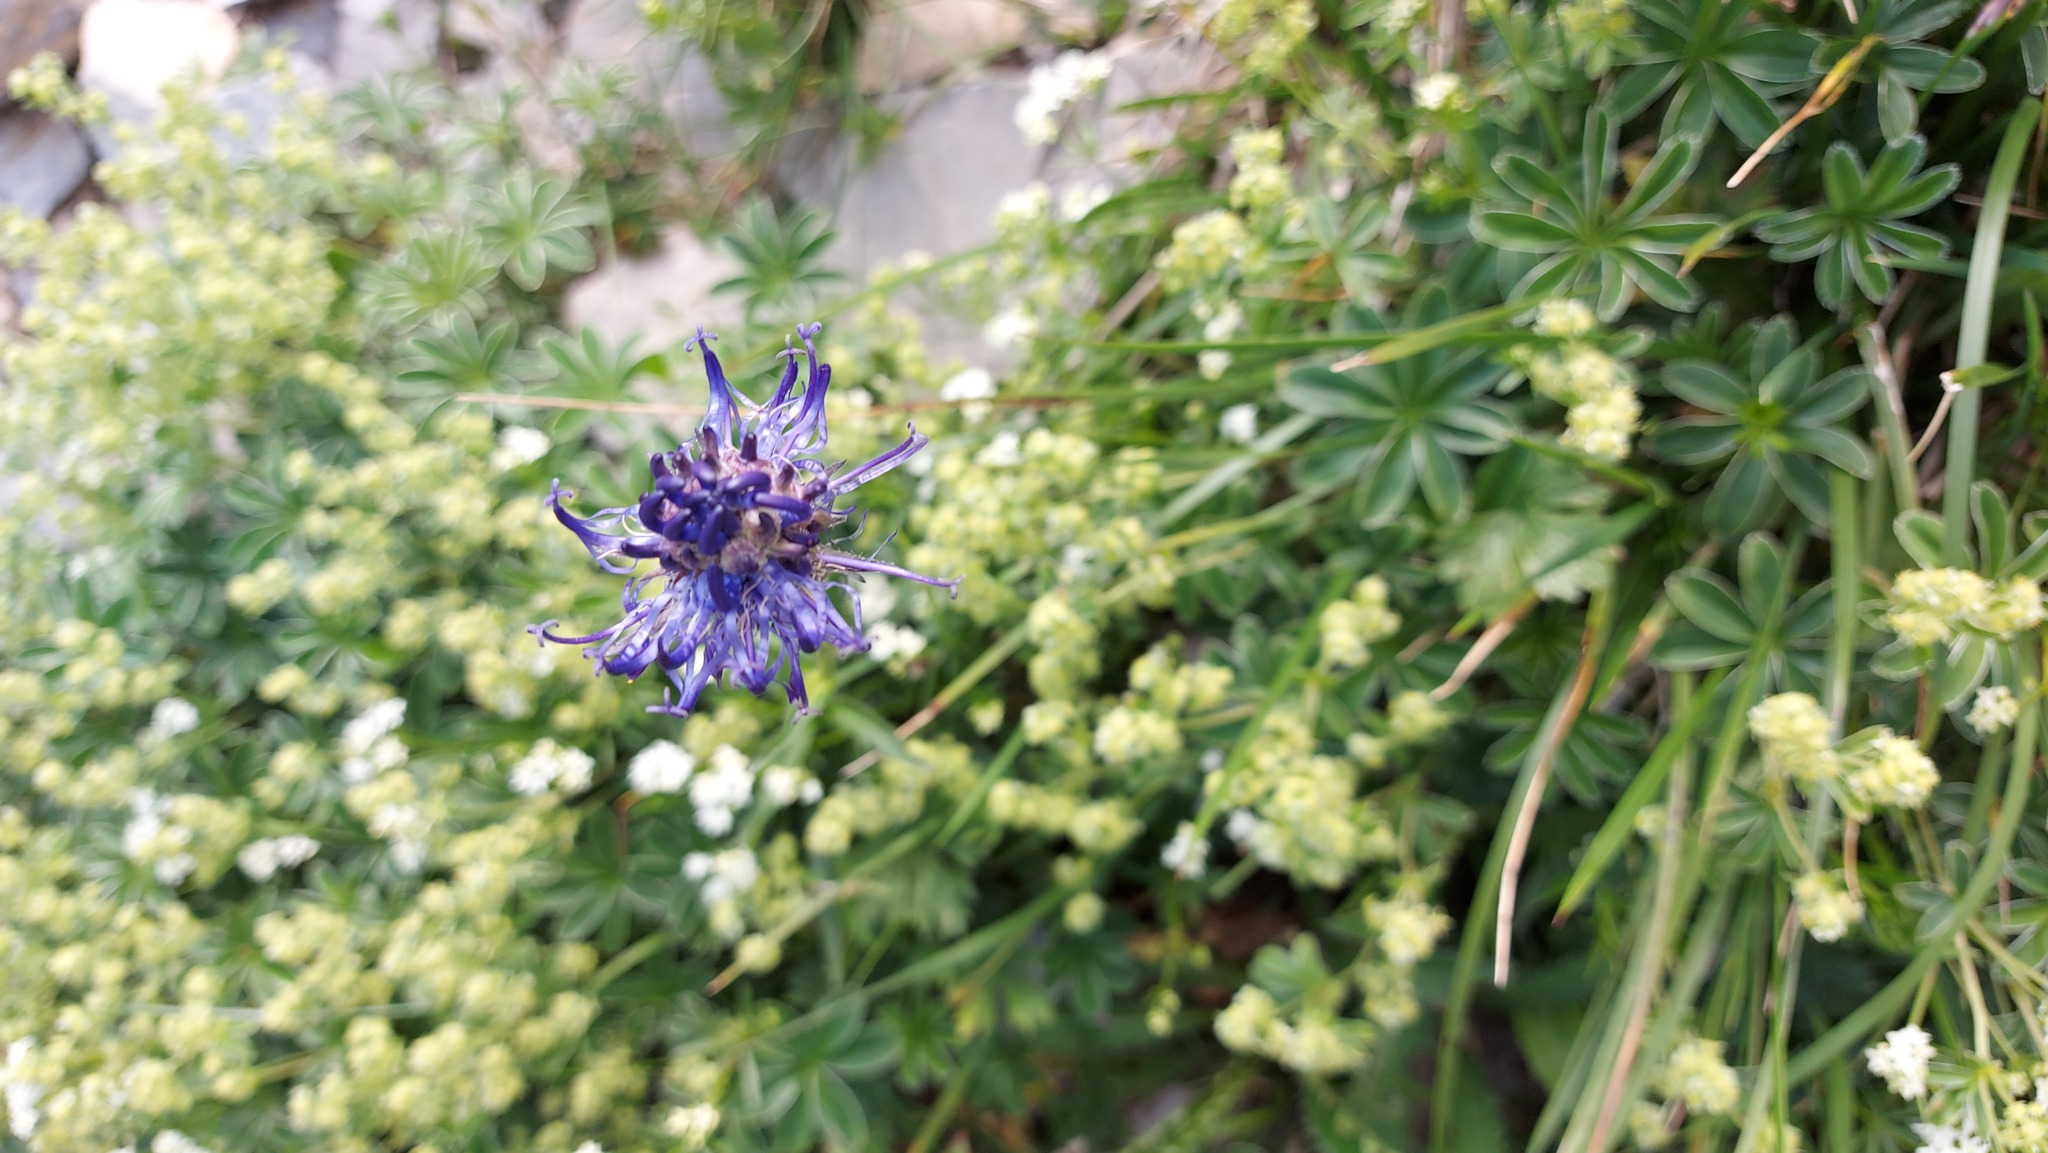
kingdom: Plantae
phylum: Tracheophyta
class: Magnoliopsida
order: Asterales
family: Campanulaceae
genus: Phyteuma
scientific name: Phyteuma orbiculare
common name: Round-headed rampion
